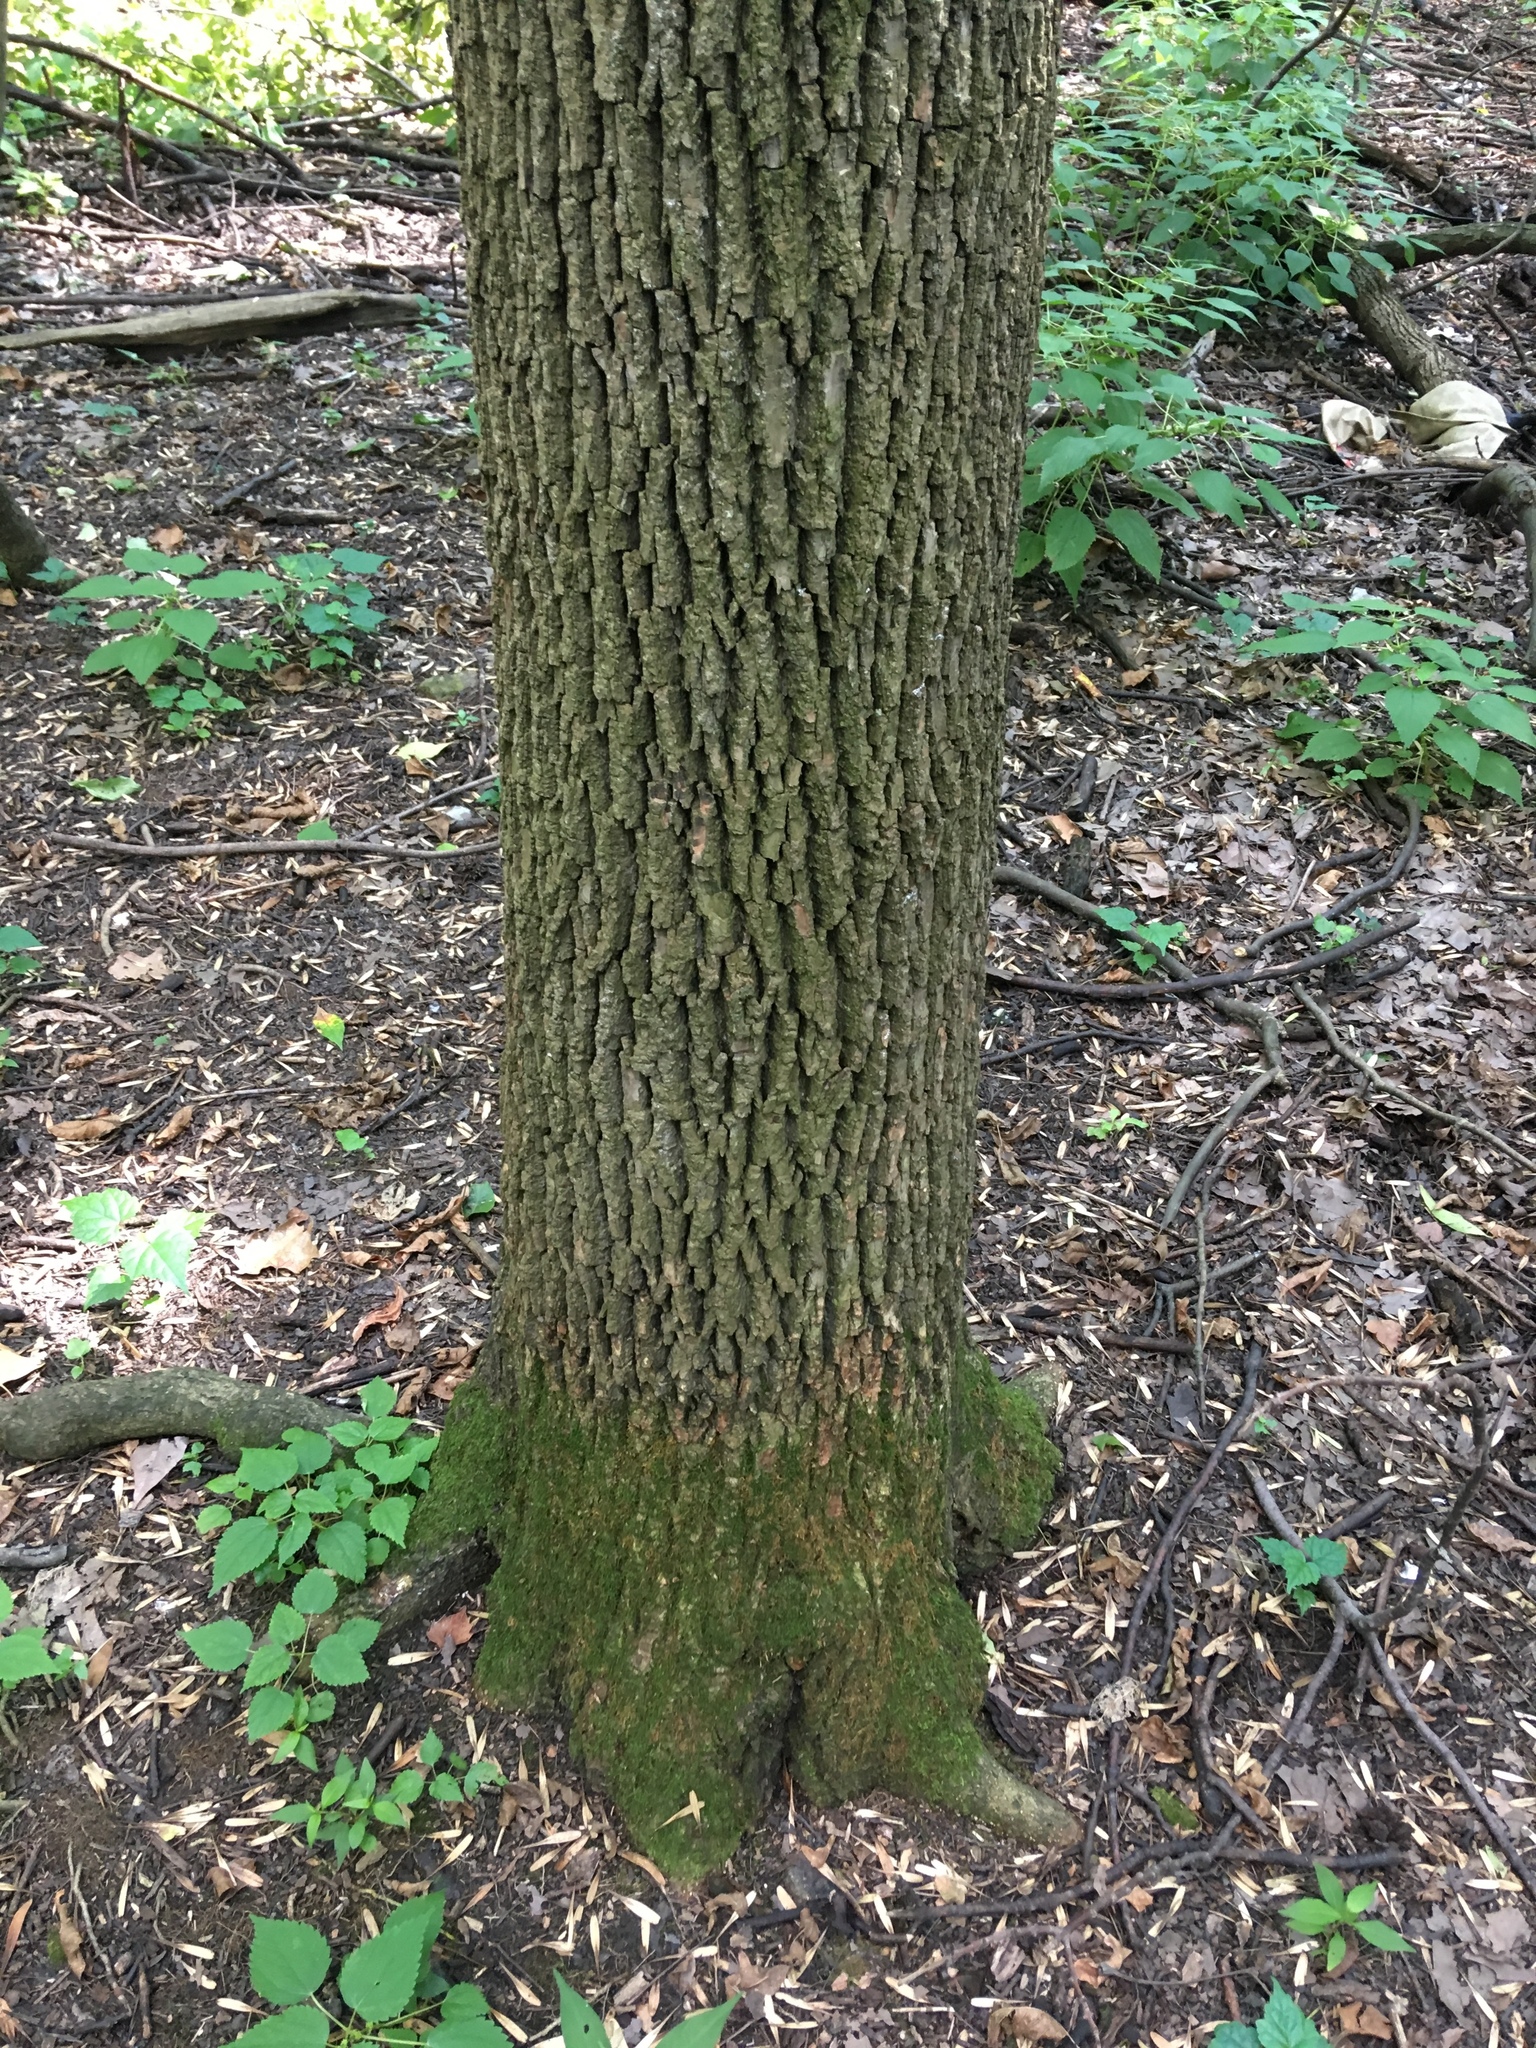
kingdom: Plantae
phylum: Tracheophyta
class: Magnoliopsida
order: Lamiales
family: Oleaceae
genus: Fraxinus
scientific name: Fraxinus pennsylvanica
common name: Green ash
